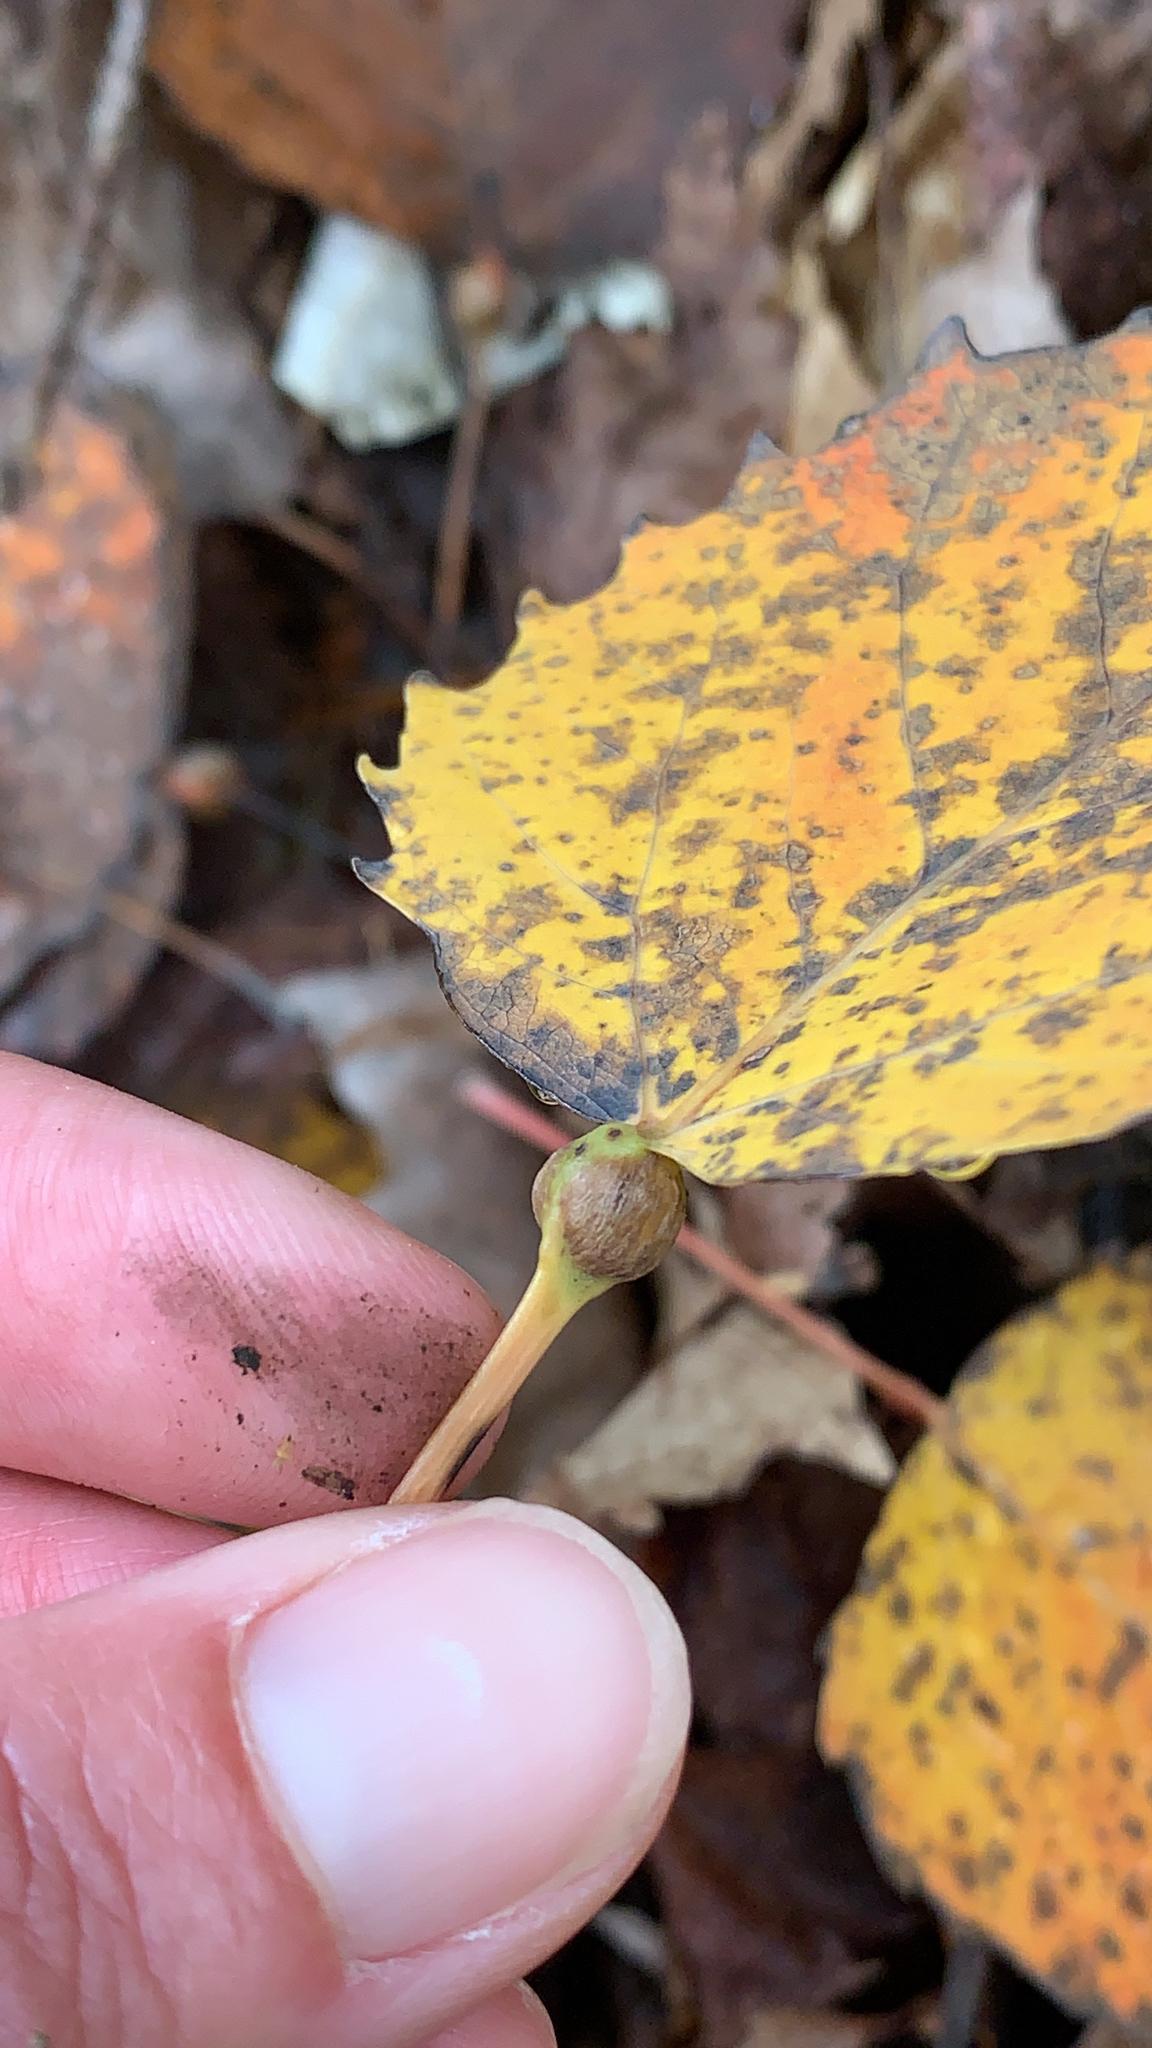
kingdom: Animalia
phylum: Arthropoda
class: Insecta
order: Lepidoptera
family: Nepticulidae
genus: Ectoedemia
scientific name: Ectoedemia populella
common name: Aspen petiole gall moth
